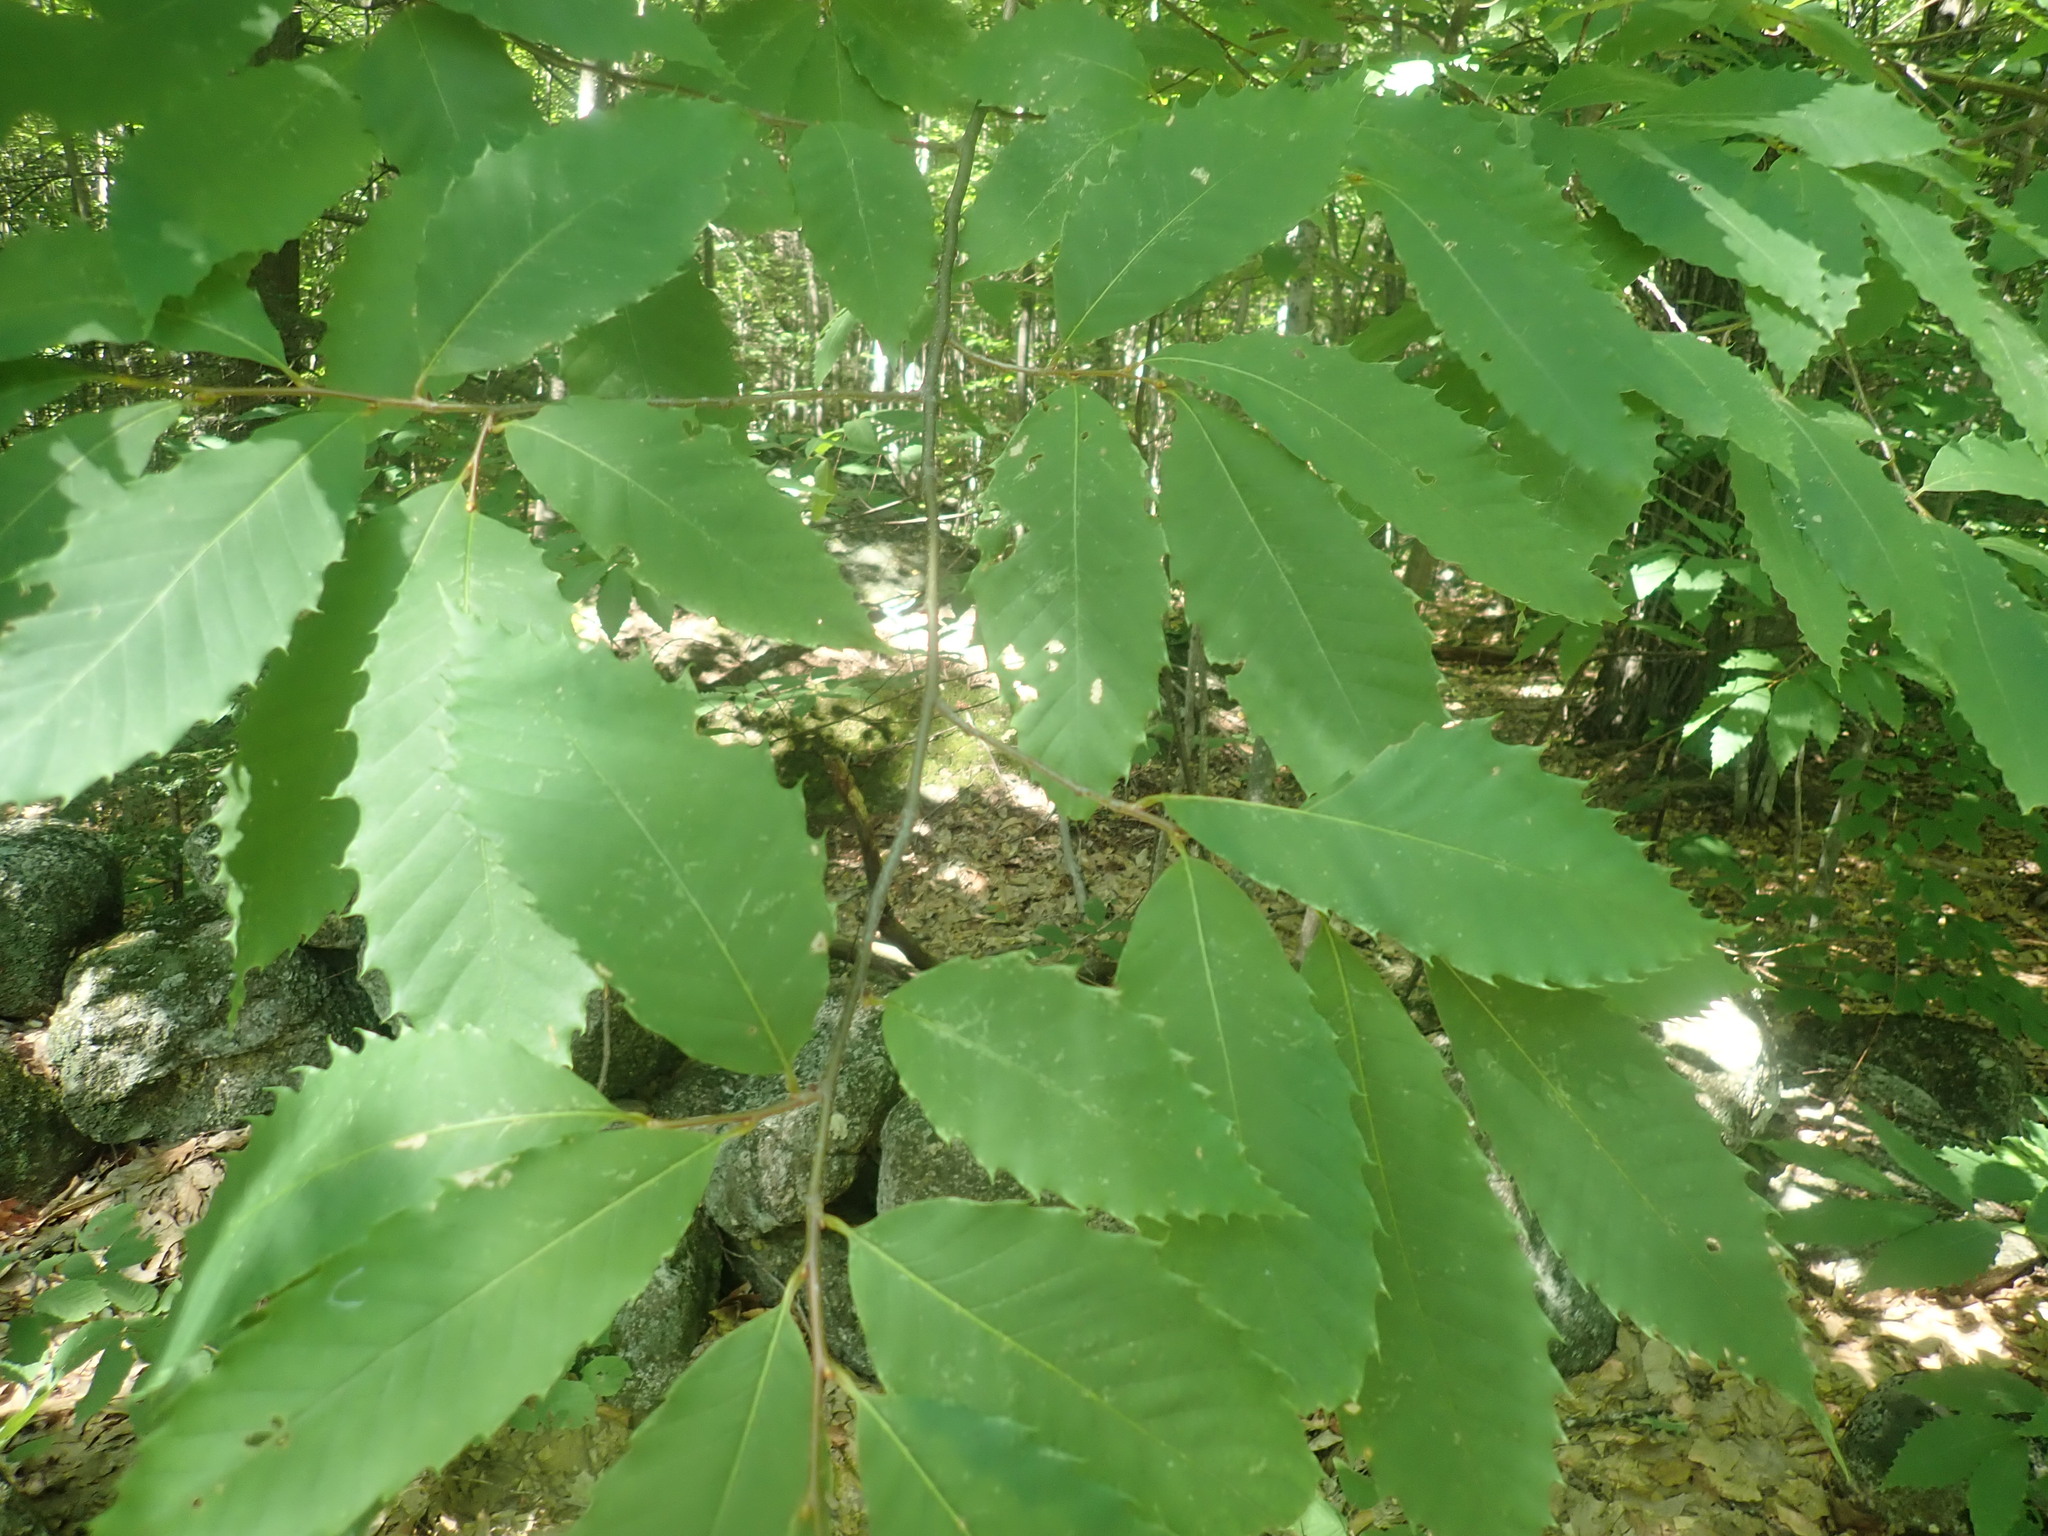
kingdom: Plantae
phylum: Tracheophyta
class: Magnoliopsida
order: Fagales
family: Fagaceae
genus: Castanea
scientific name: Castanea dentata
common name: American chestnut
